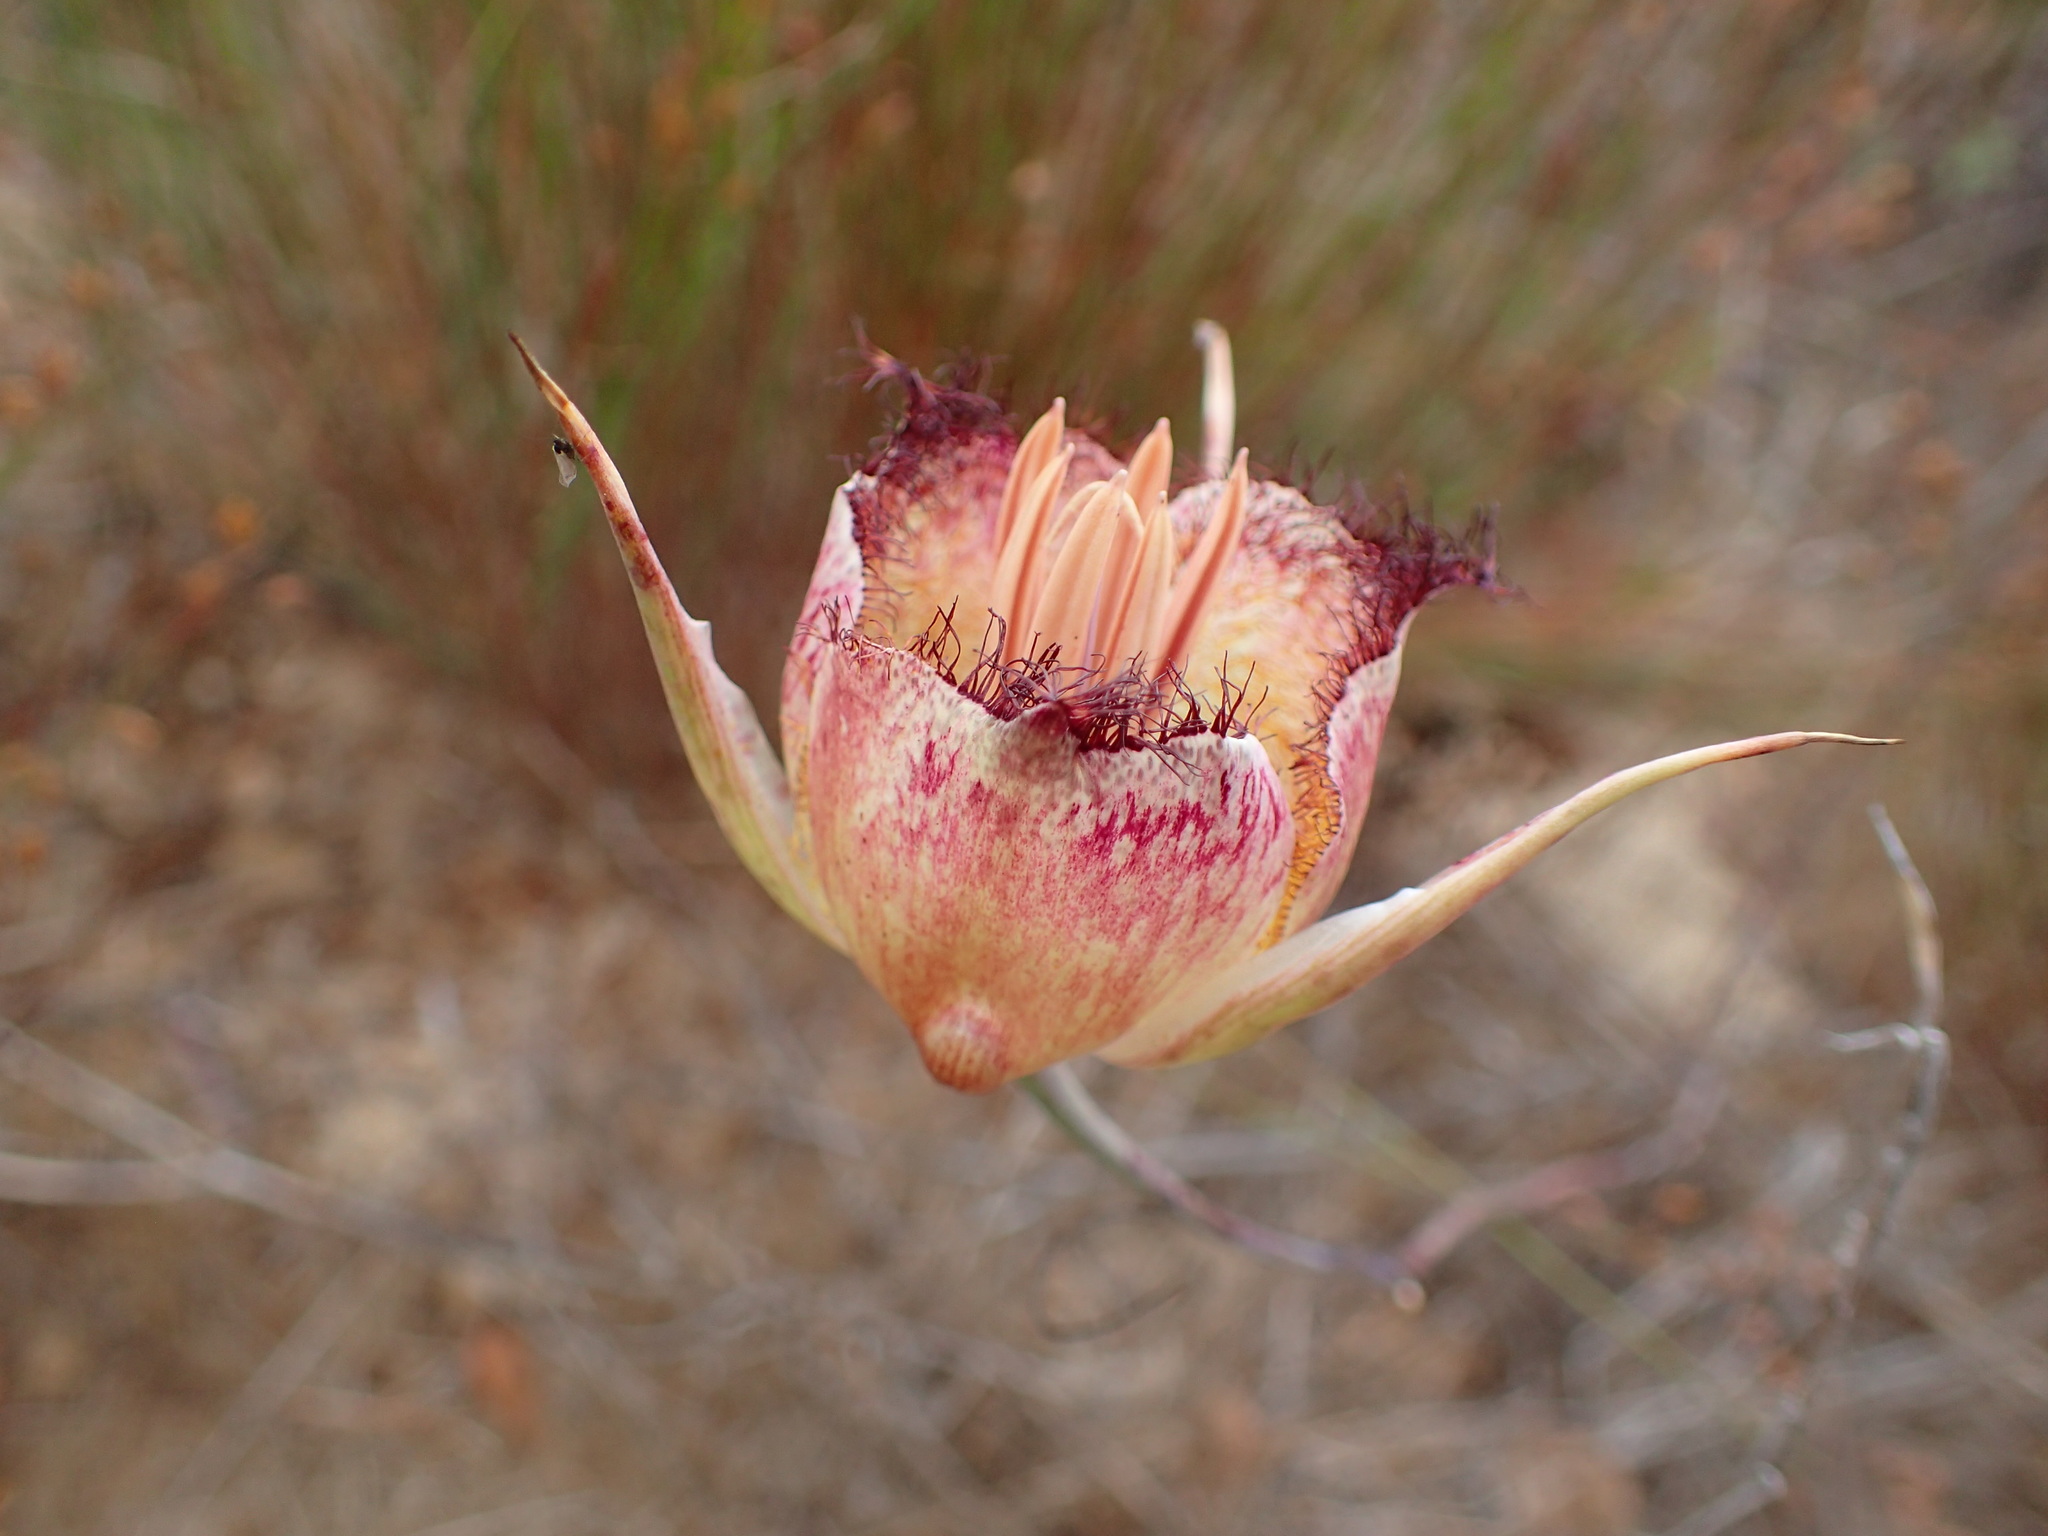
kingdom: Plantae
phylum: Tracheophyta
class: Liliopsida
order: Liliales
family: Liliaceae
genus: Calochortus
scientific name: Calochortus fimbriatus
